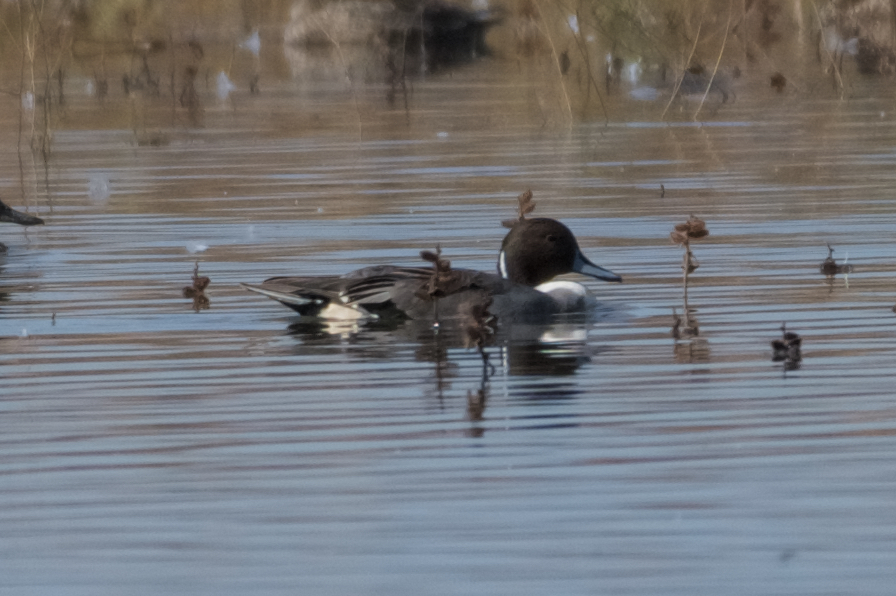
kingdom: Animalia
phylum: Chordata
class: Aves
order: Anseriformes
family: Anatidae
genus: Anas
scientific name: Anas acuta
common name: Northern pintail
